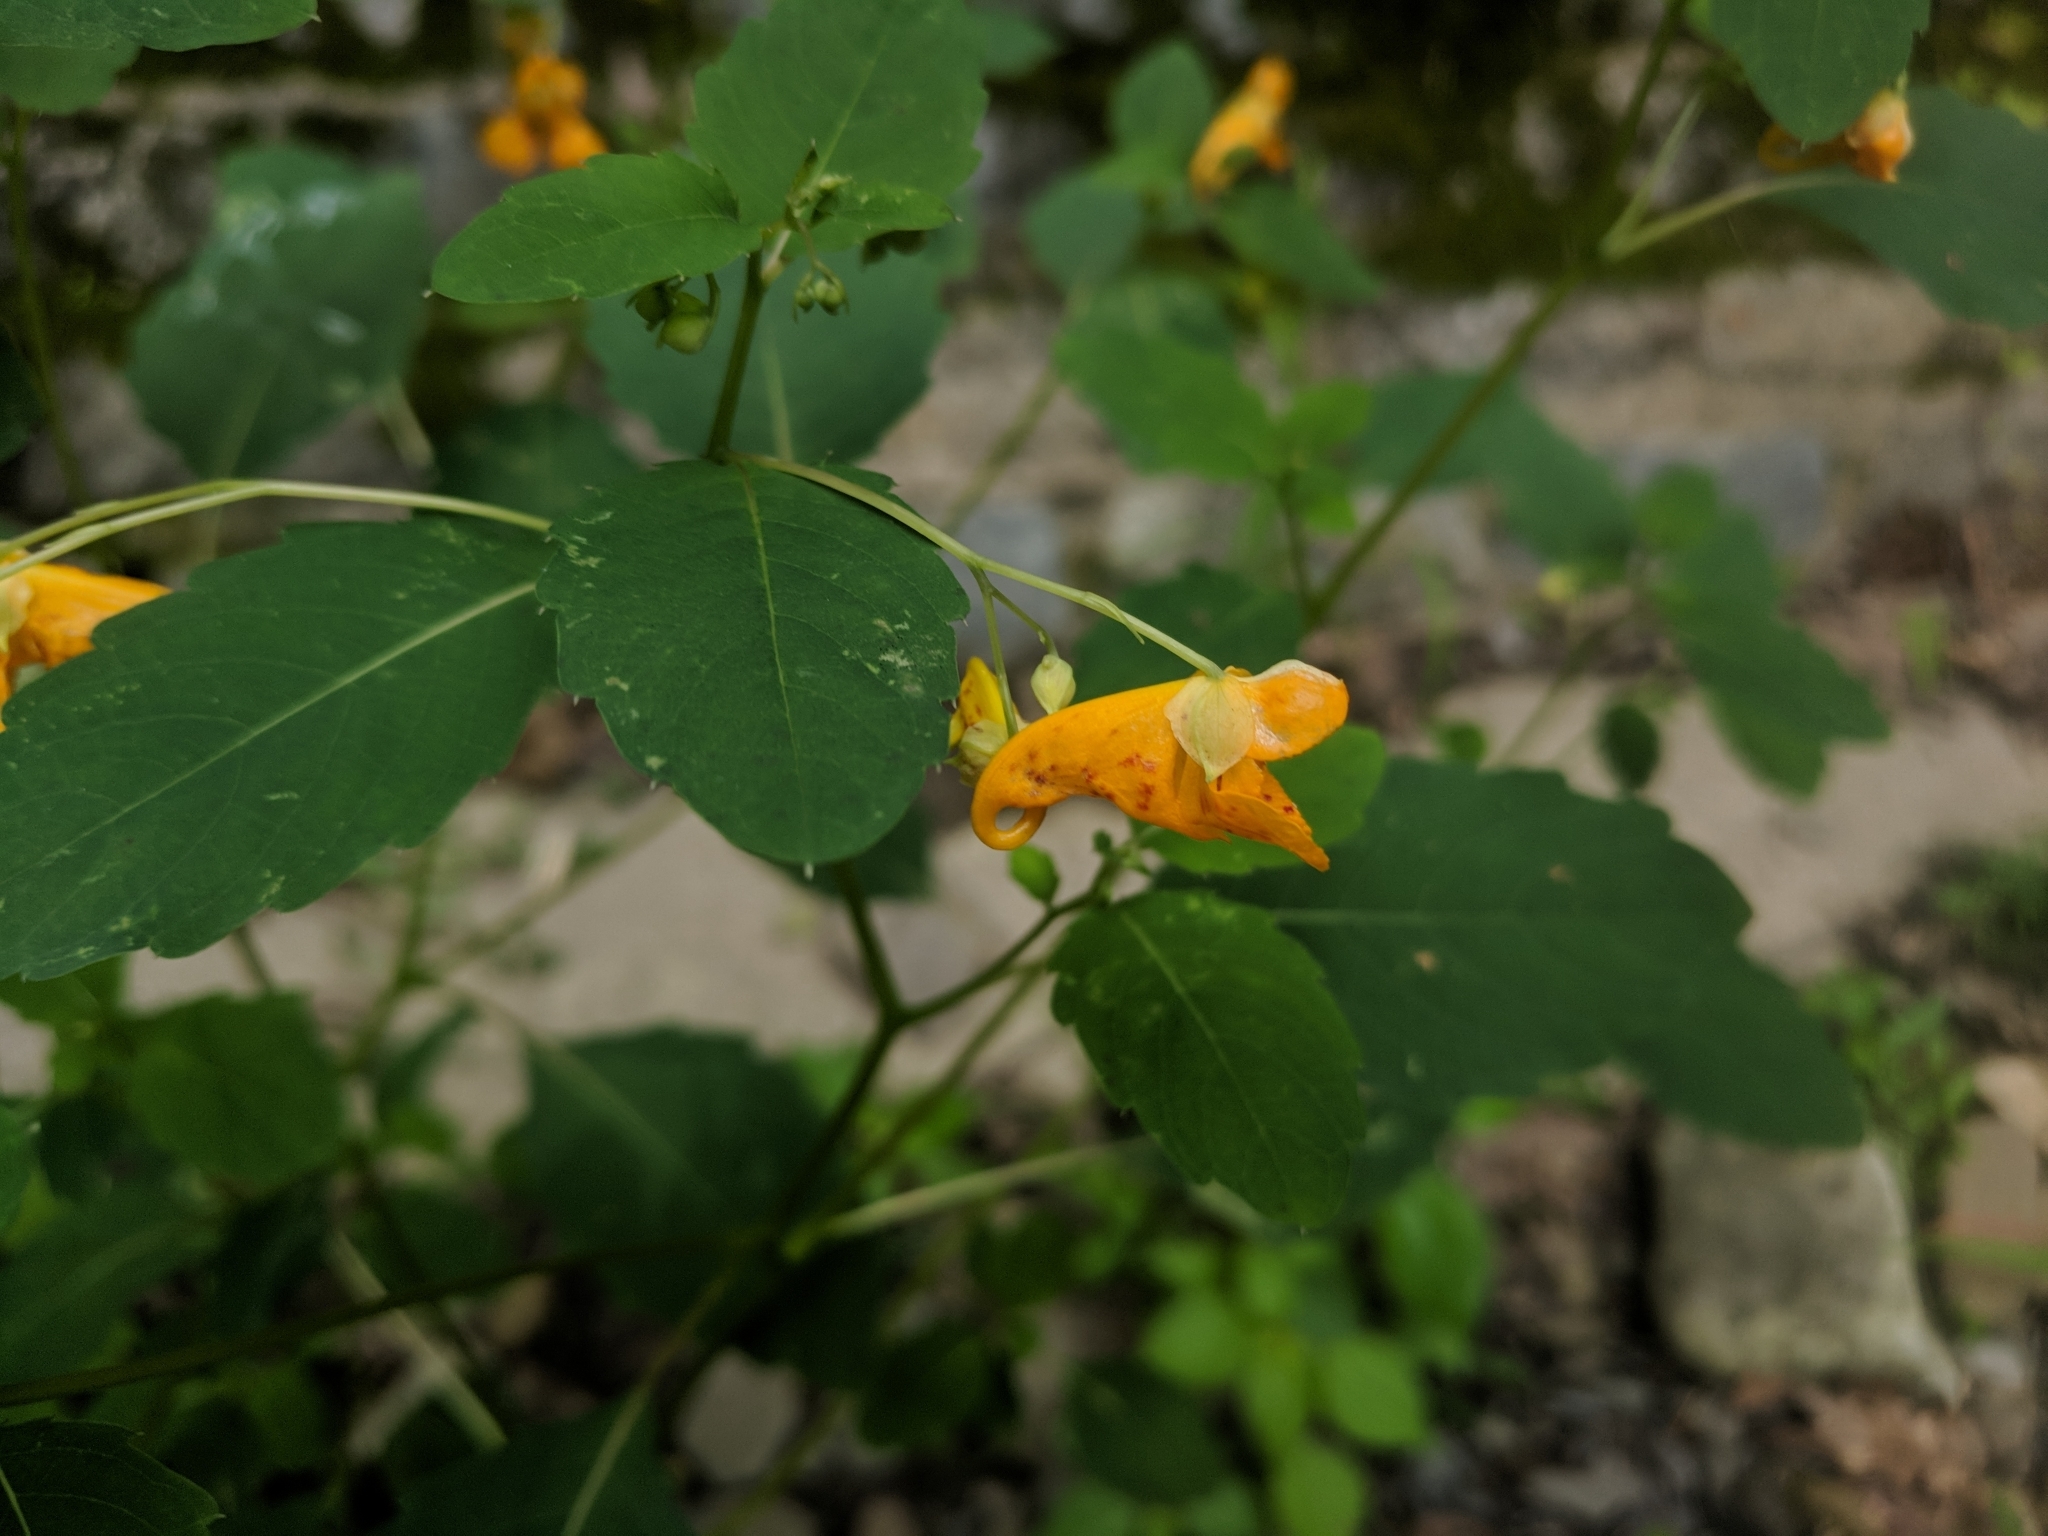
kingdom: Plantae
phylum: Tracheophyta
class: Magnoliopsida
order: Ericales
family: Balsaminaceae
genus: Impatiens
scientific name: Impatiens capensis
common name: Orange balsam
